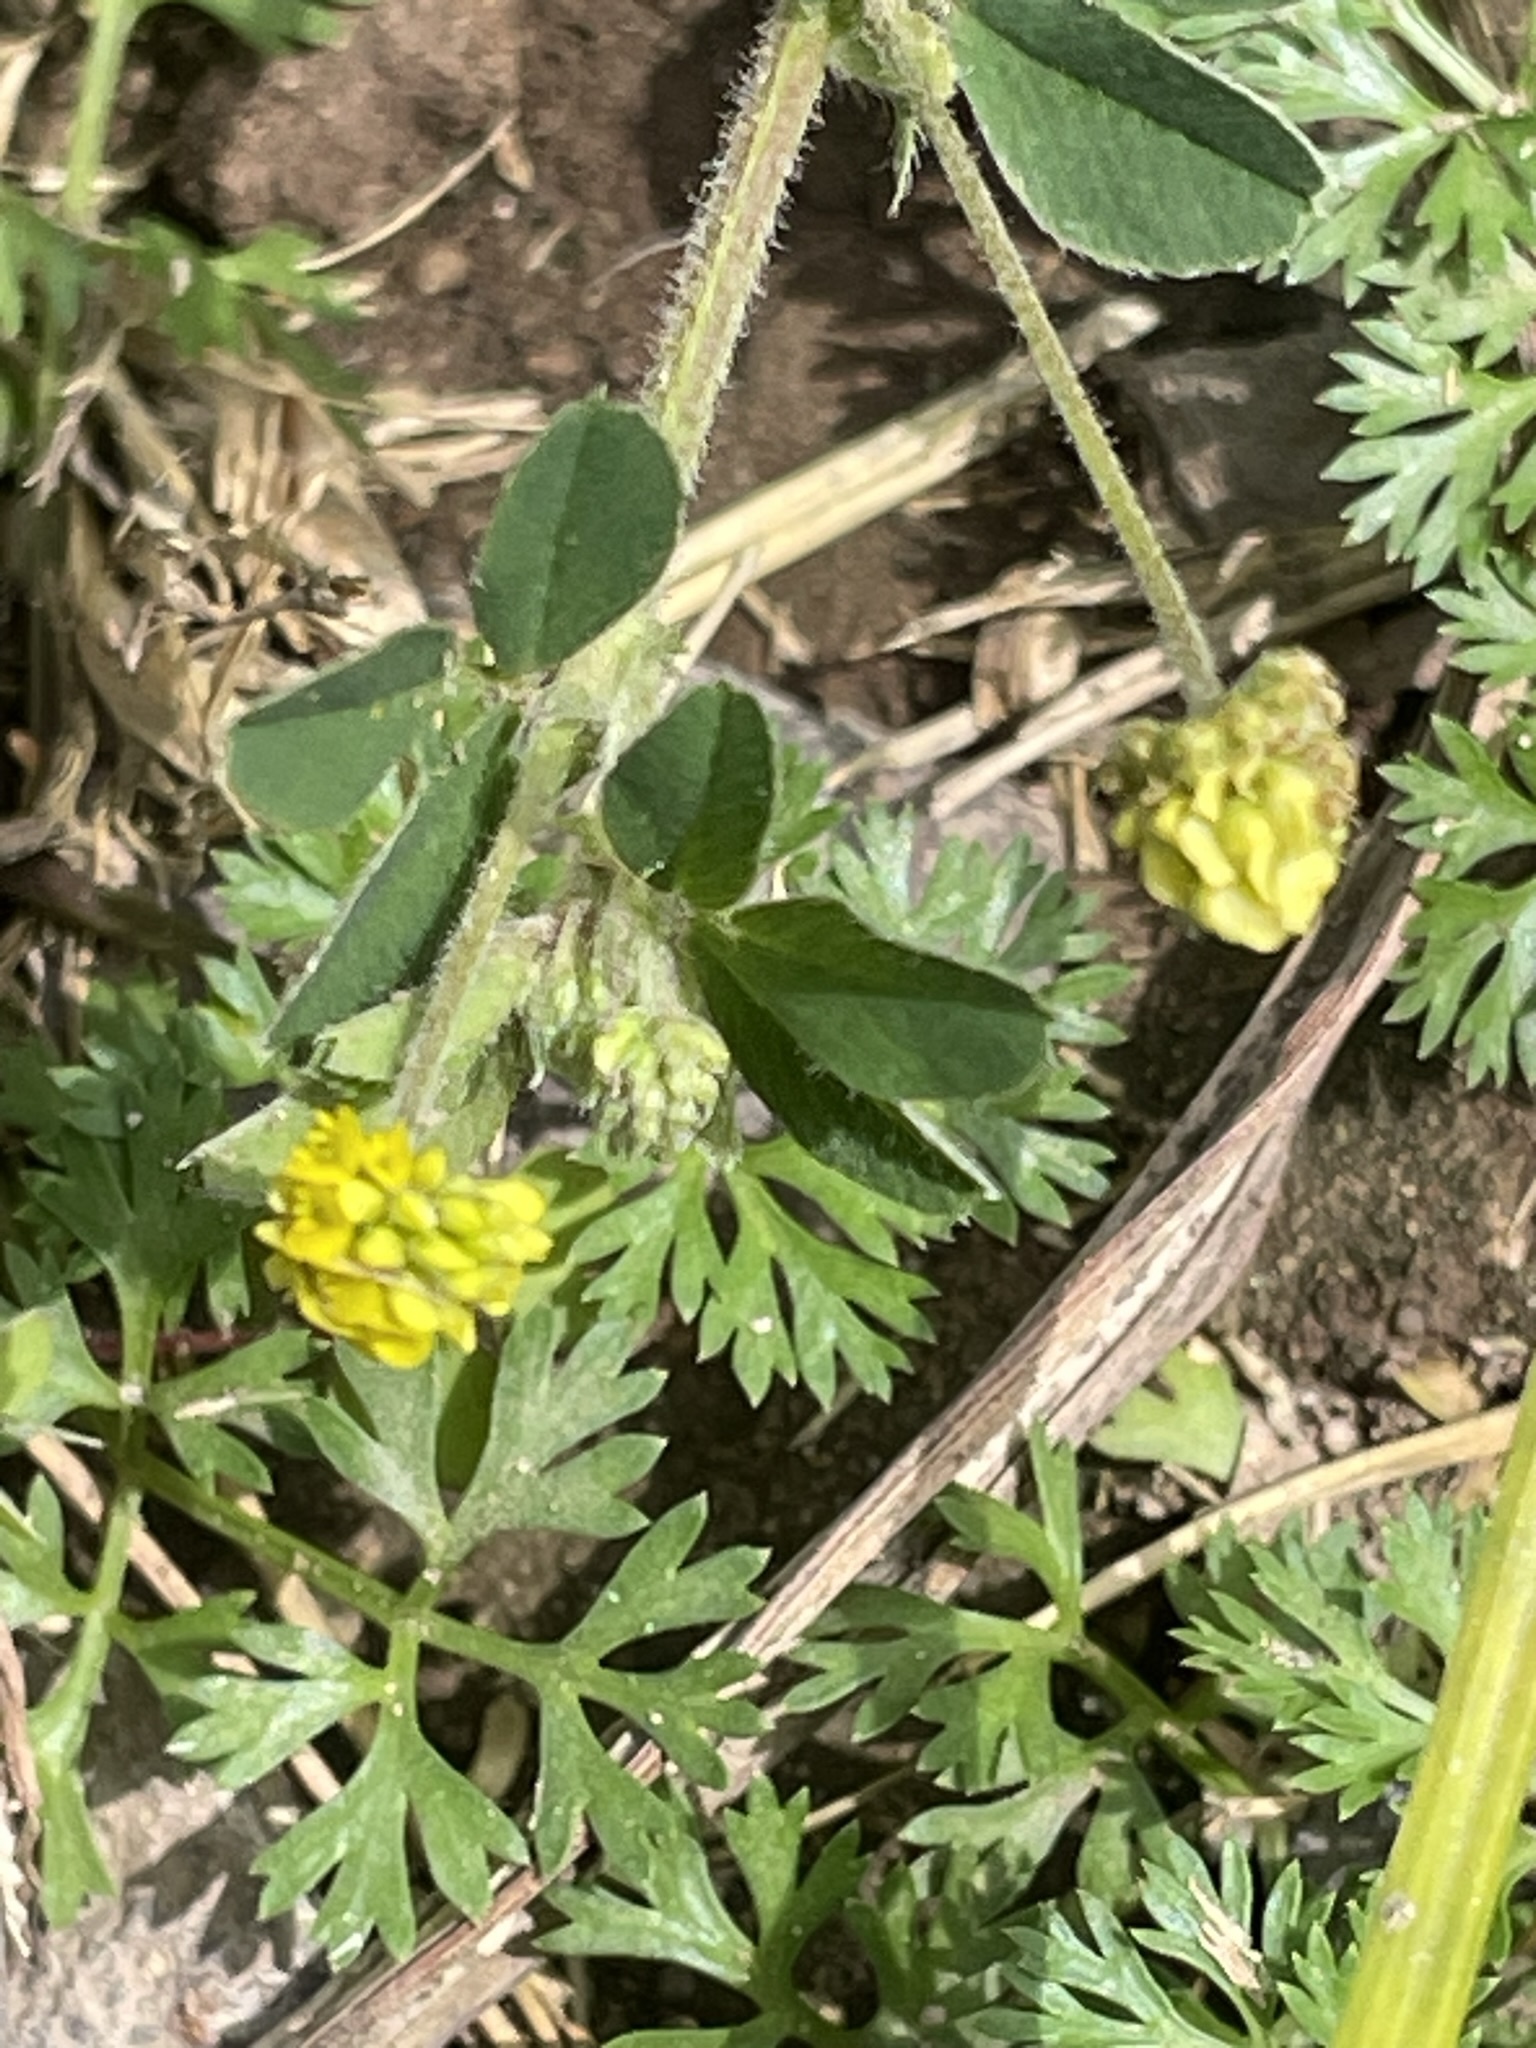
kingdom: Plantae
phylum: Tracheophyta
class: Magnoliopsida
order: Fabales
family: Fabaceae
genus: Medicago
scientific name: Medicago lupulina
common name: Black medick
